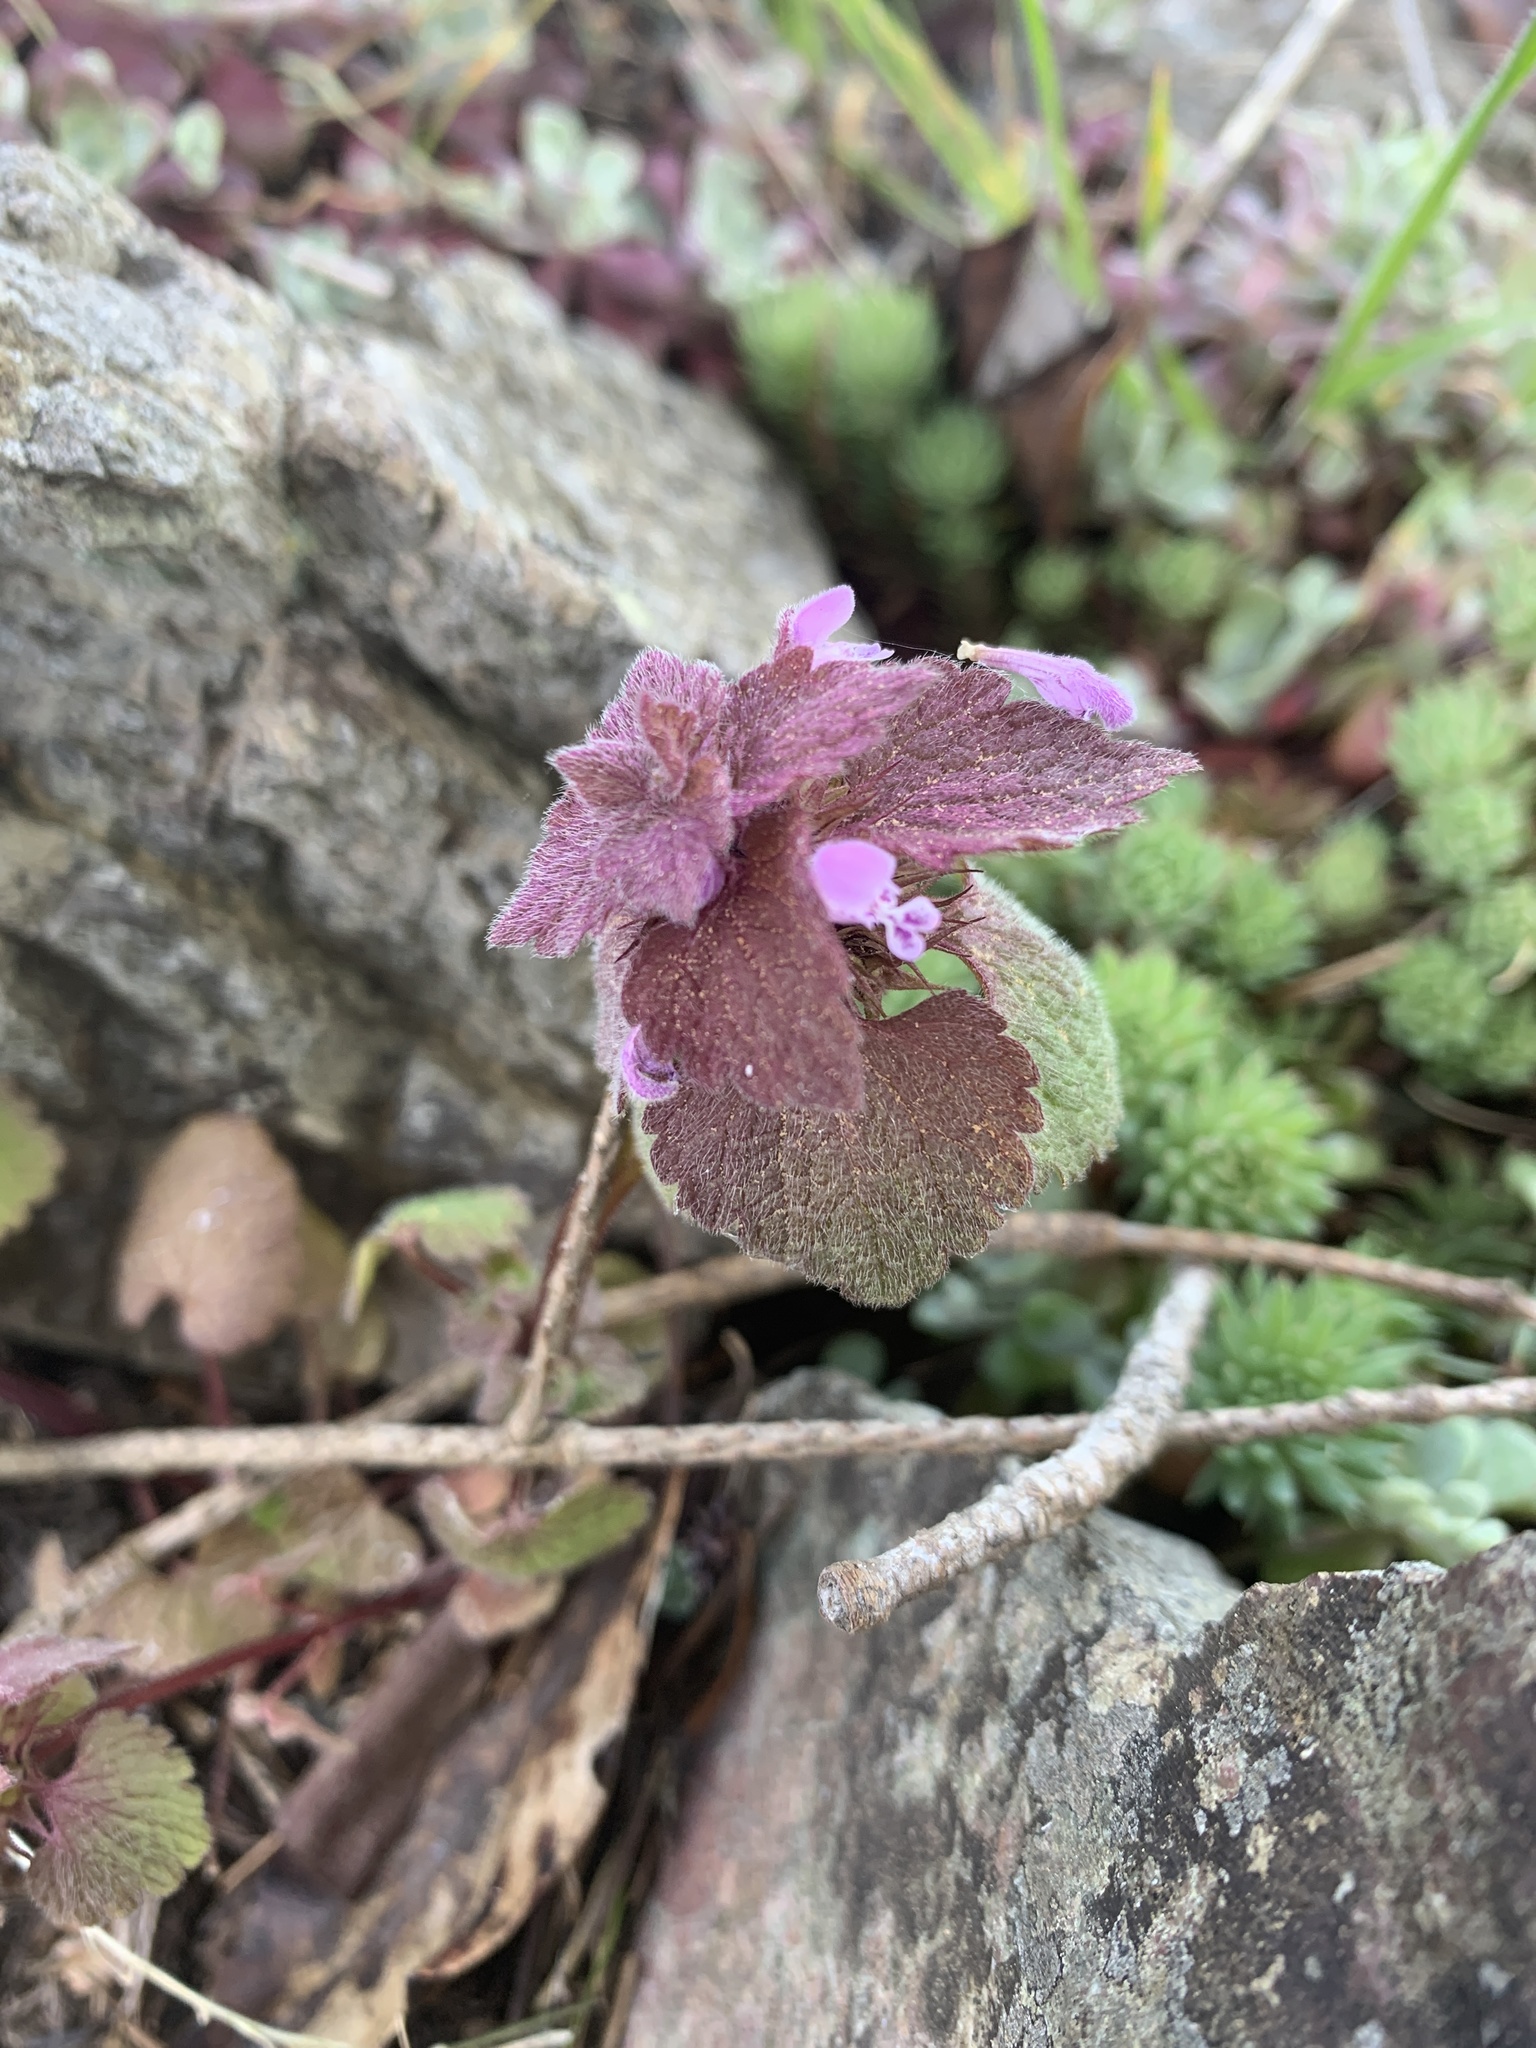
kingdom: Plantae
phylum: Tracheophyta
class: Magnoliopsida
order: Lamiales
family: Lamiaceae
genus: Lamium
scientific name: Lamium purpureum
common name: Red dead-nettle
